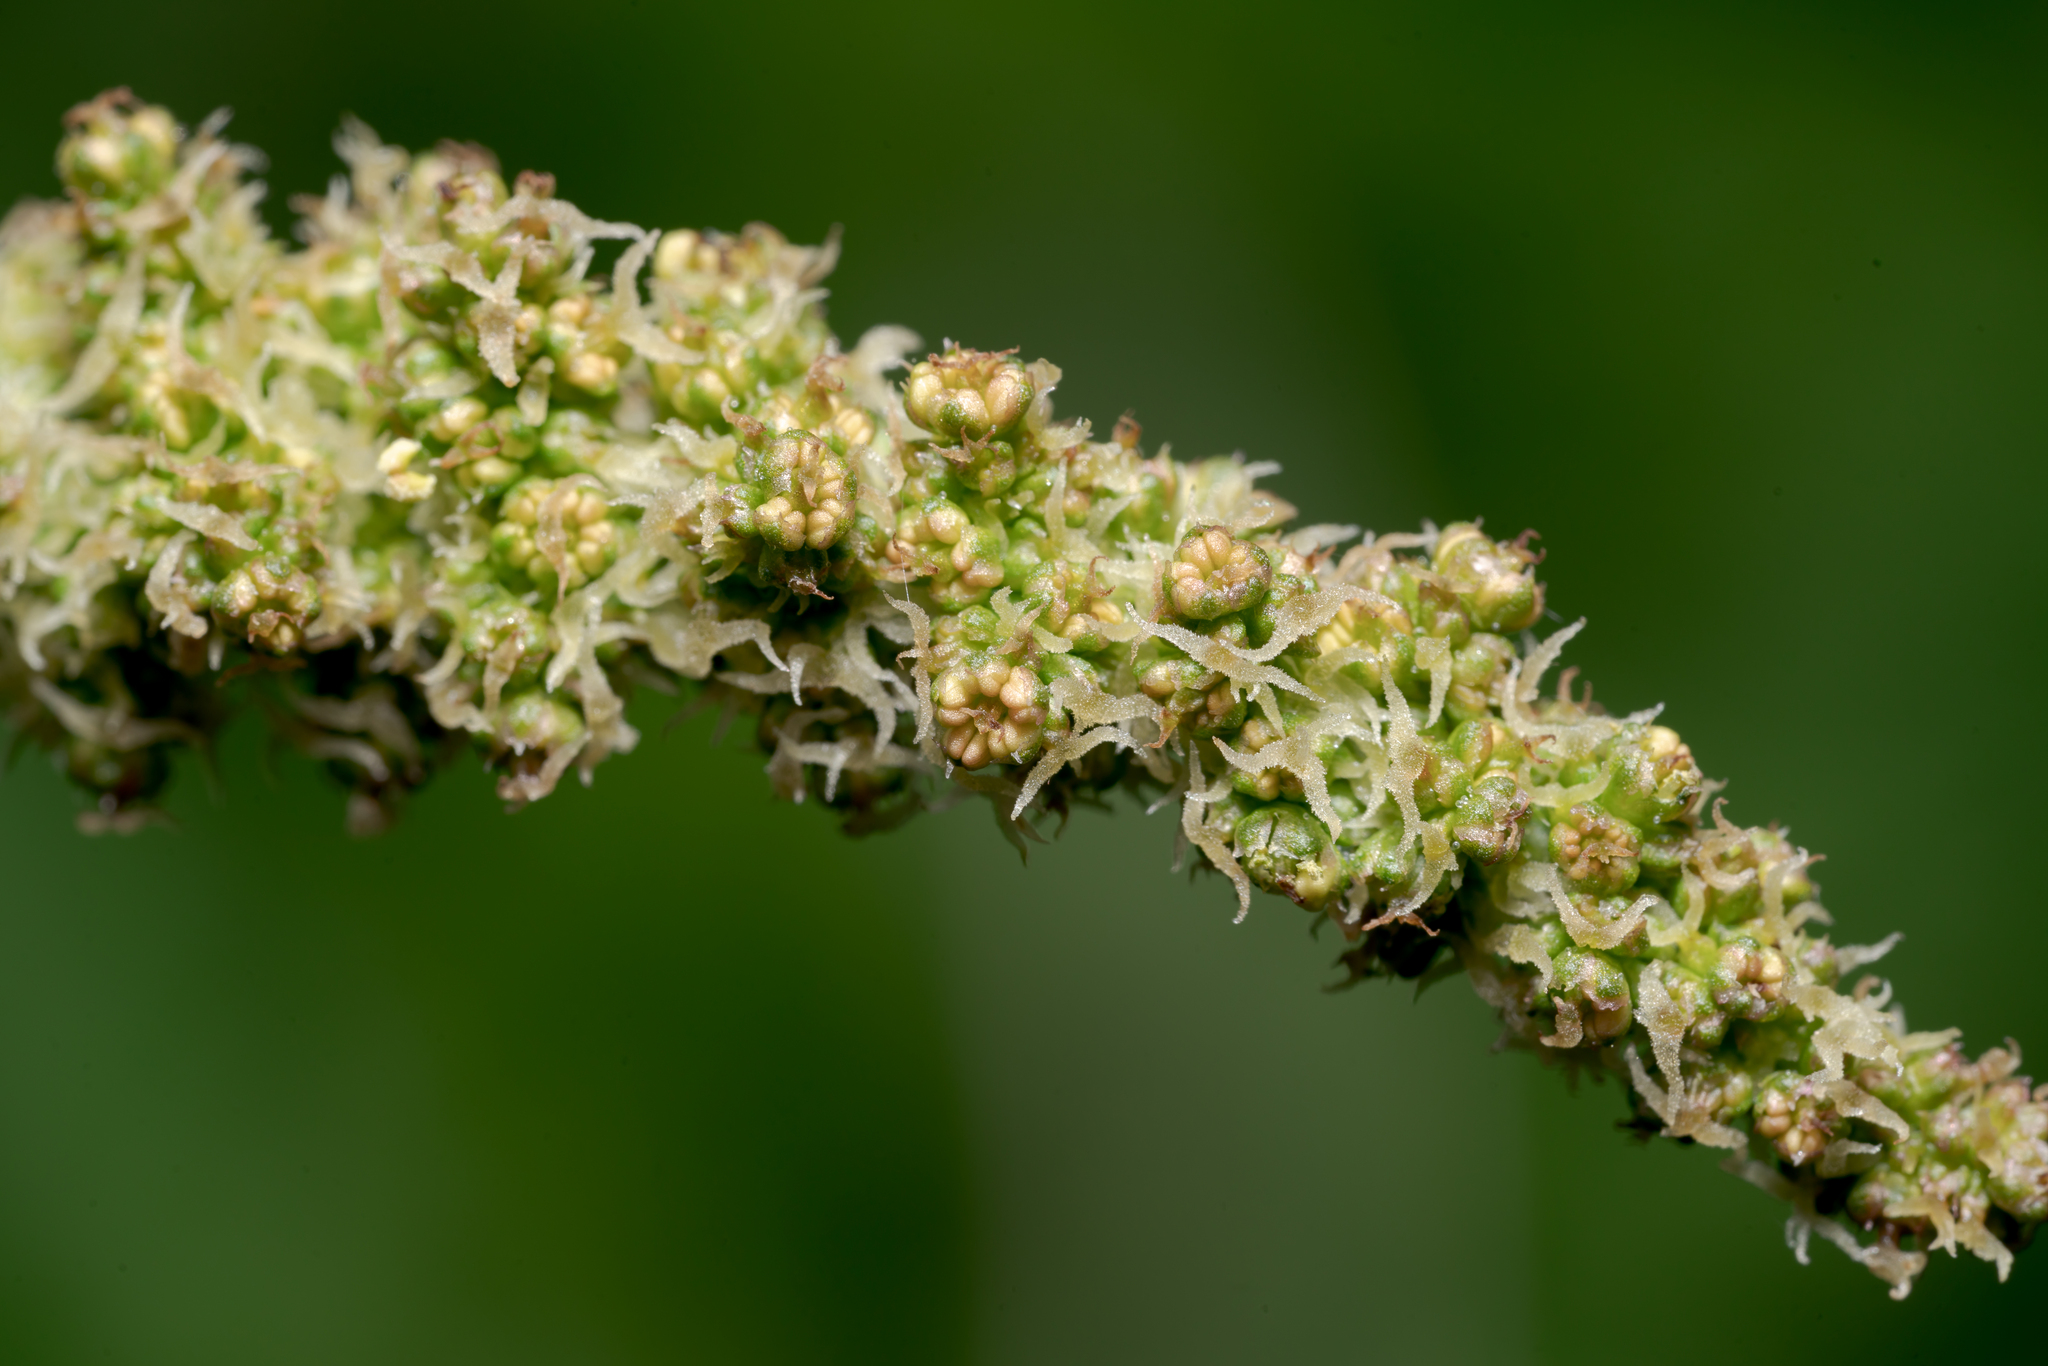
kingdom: Plantae
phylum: Tracheophyta
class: Magnoliopsida
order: Caryophyllales
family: Amaranthaceae
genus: Blitum
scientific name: Blitum bonus-henricus
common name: Good king henry
